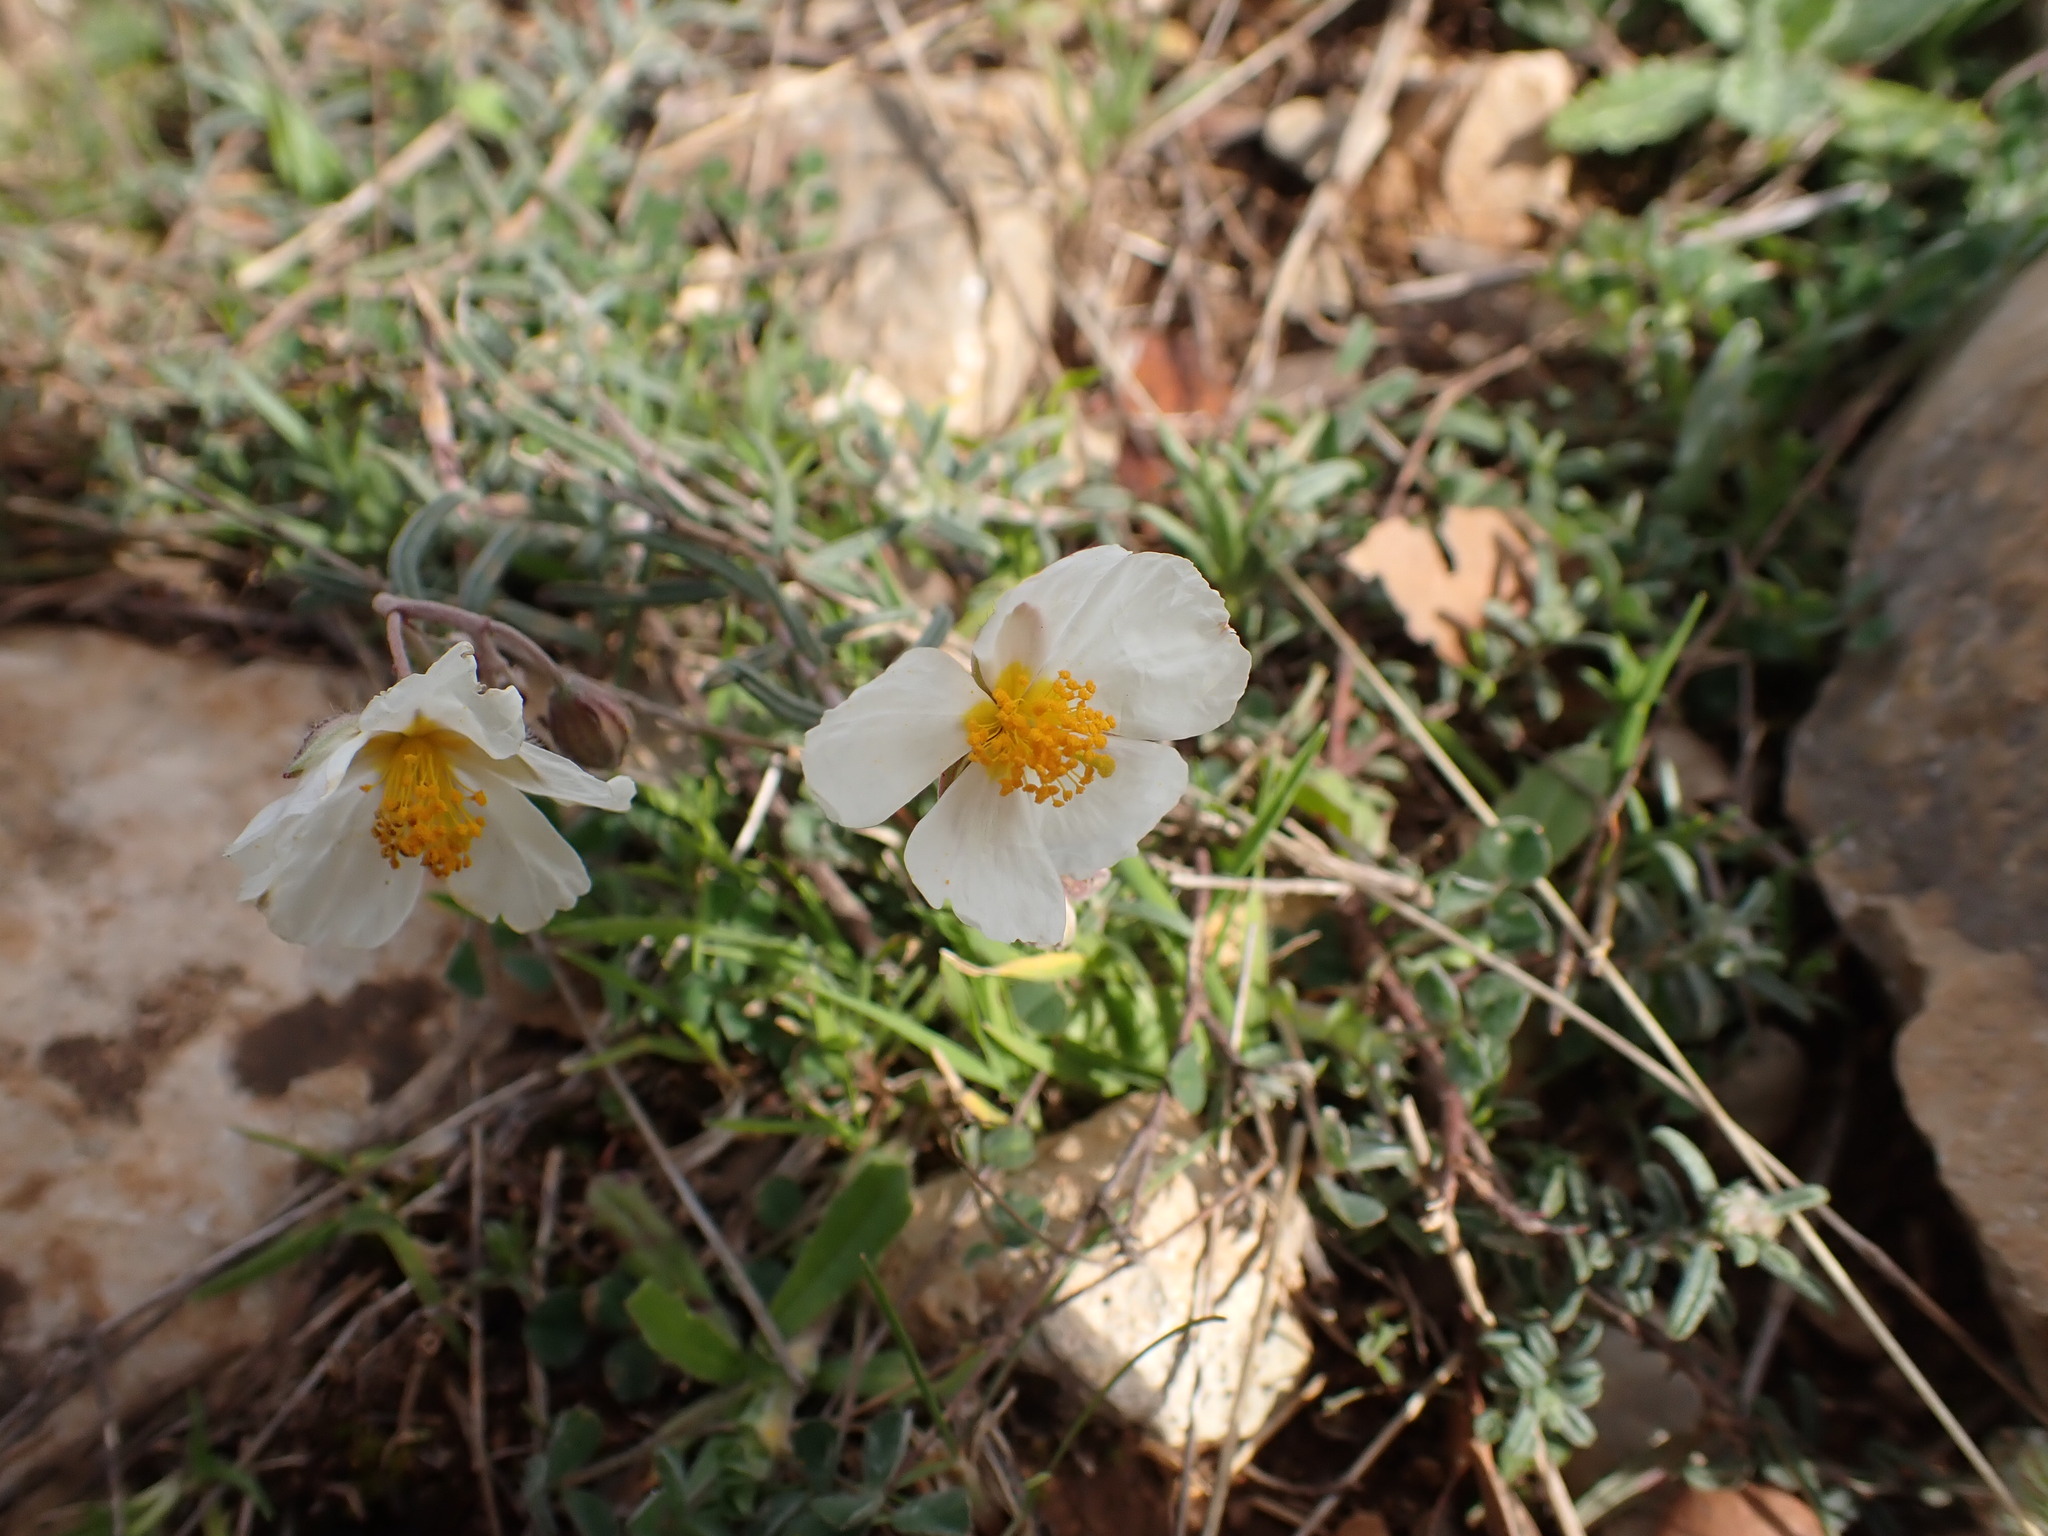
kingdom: Plantae
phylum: Tracheophyta
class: Magnoliopsida
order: Malvales
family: Cistaceae
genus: Helianthemum
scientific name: Helianthemum apenninum
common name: White rock-rose
